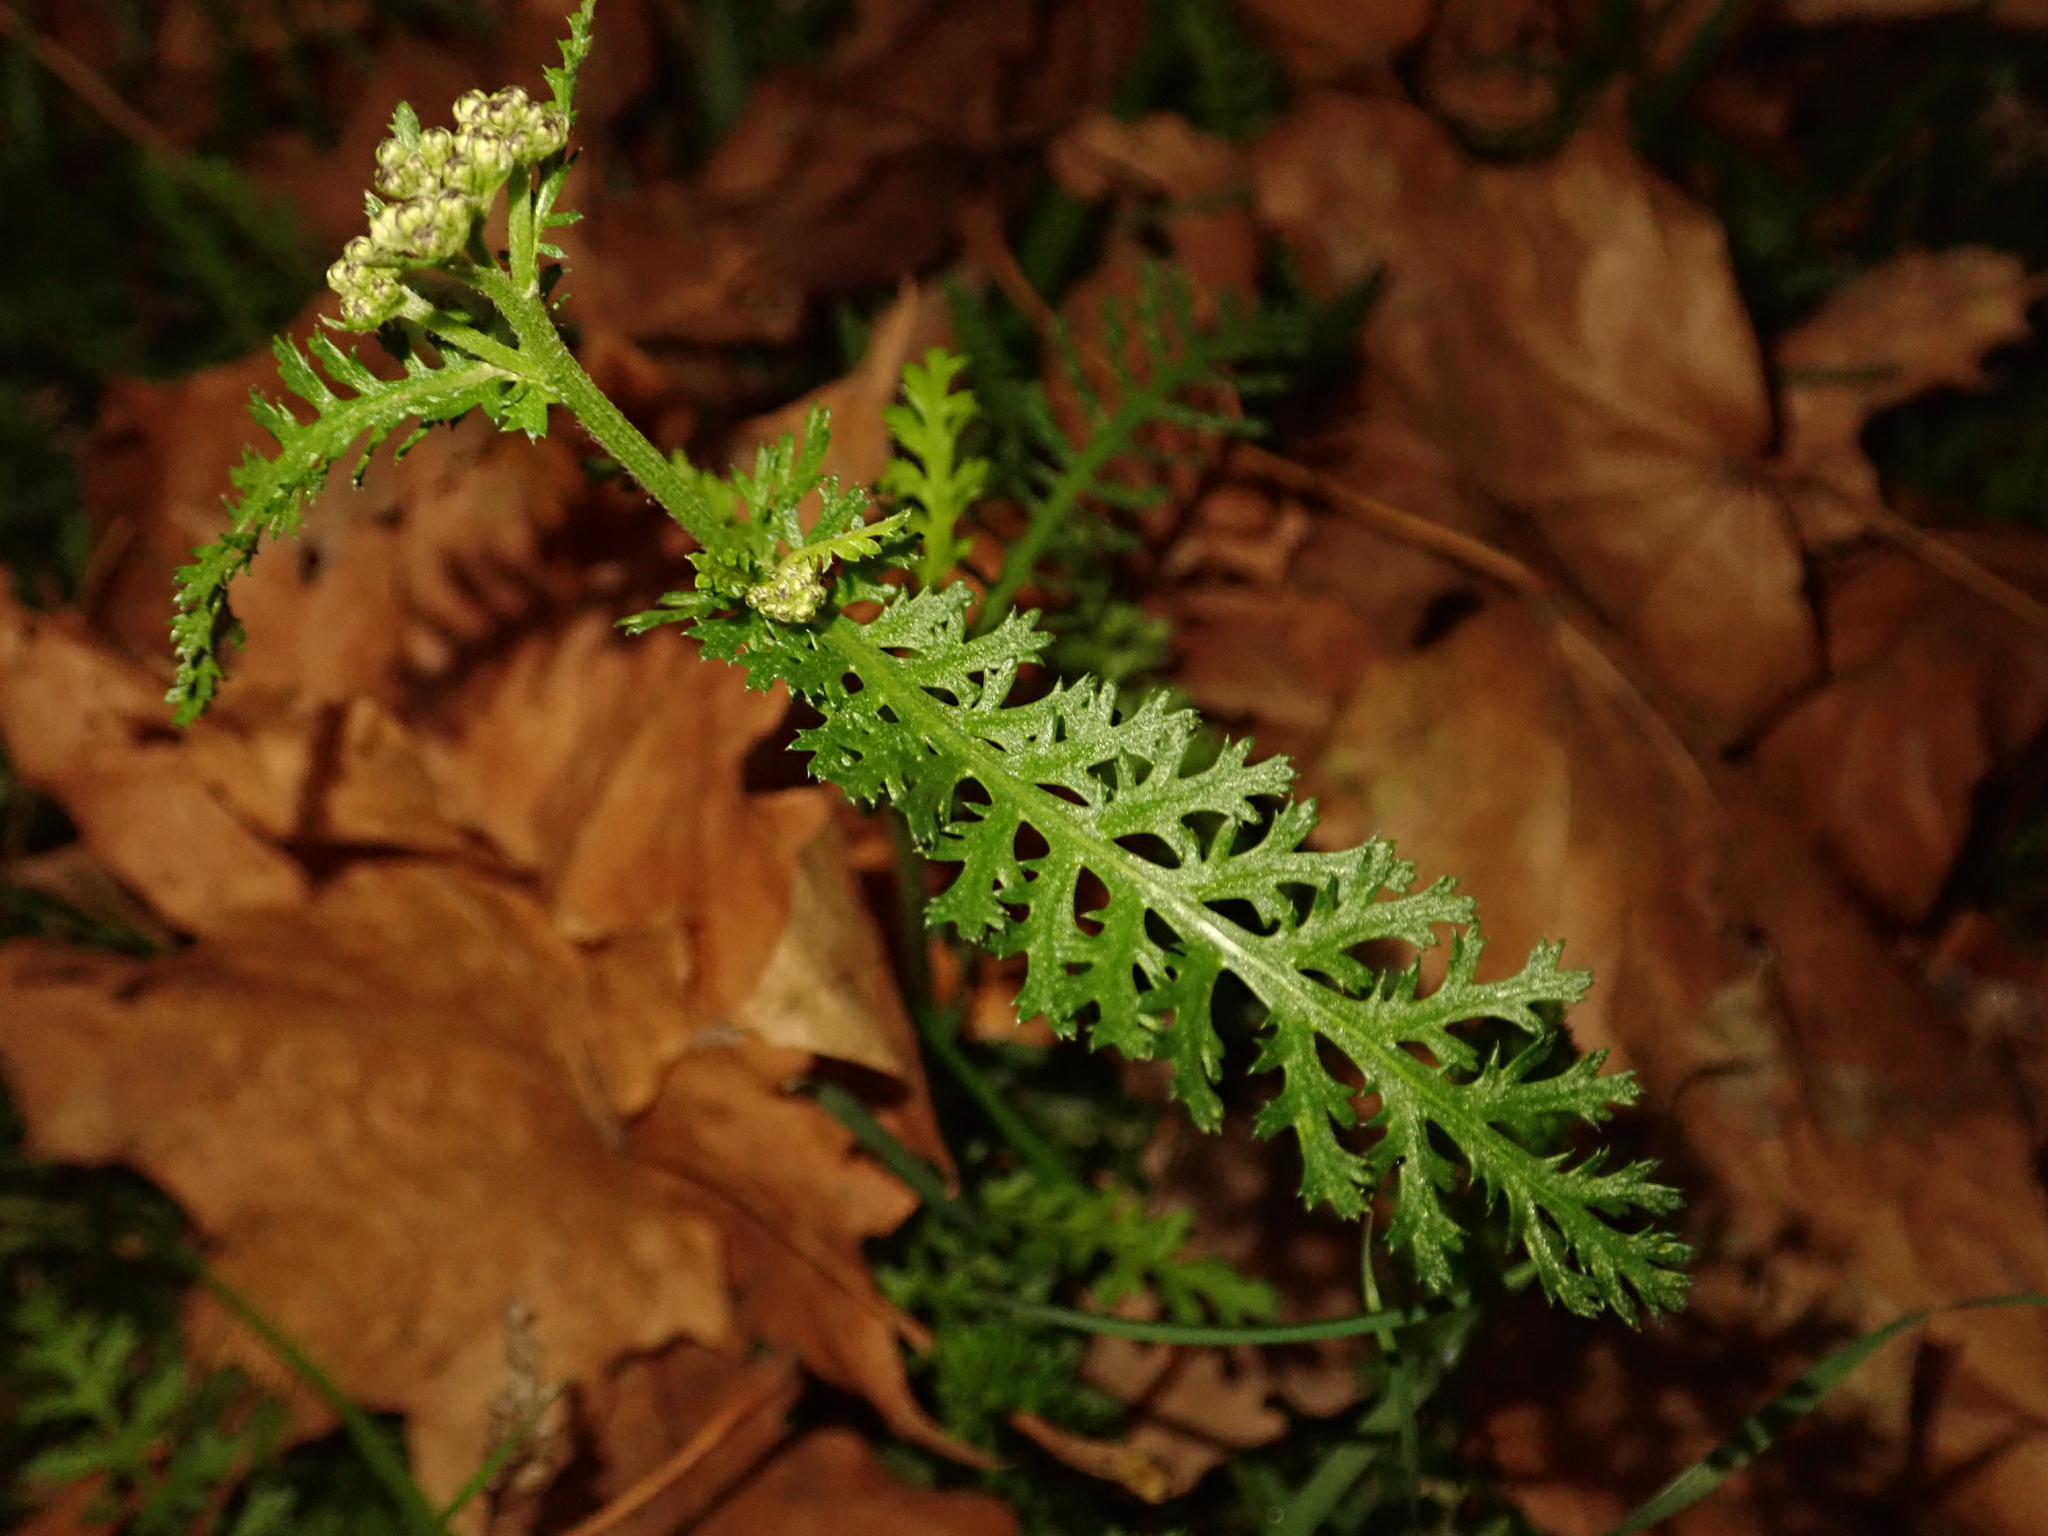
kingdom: Plantae
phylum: Tracheophyta
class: Magnoliopsida
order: Asterales
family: Asteraceae
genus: Achillea
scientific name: Achillea millefolium
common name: Yarrow
